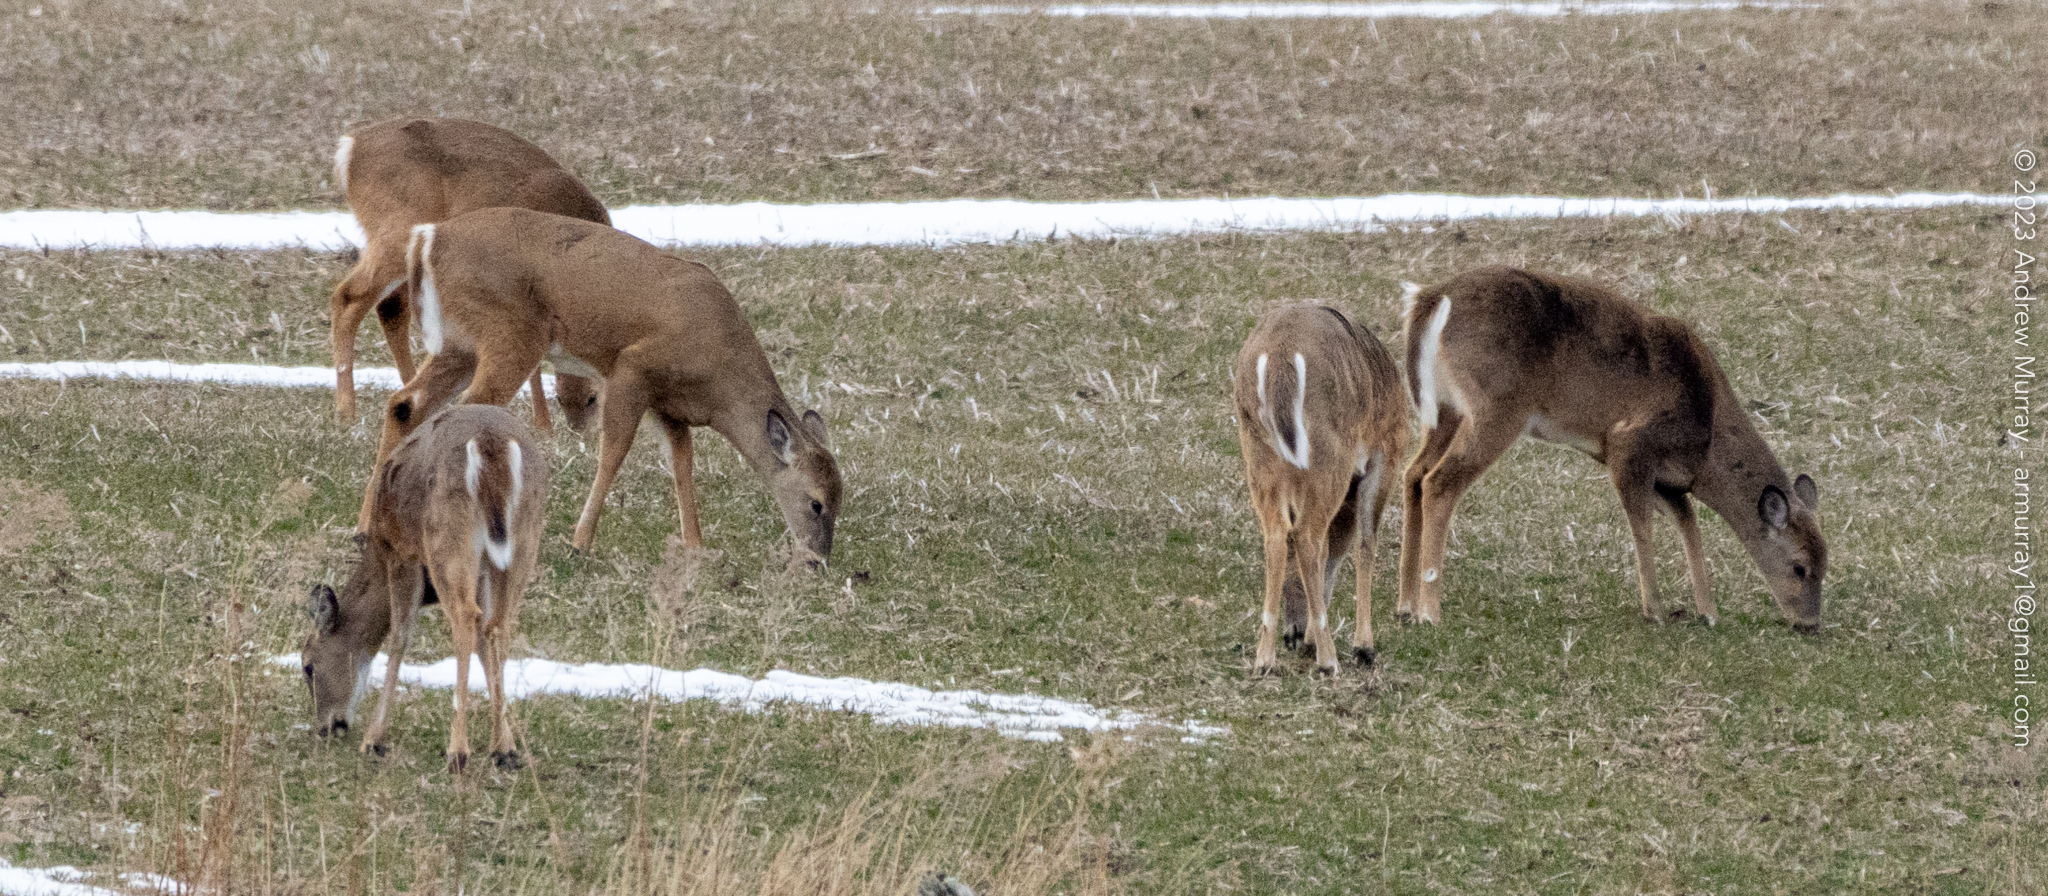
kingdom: Animalia
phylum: Chordata
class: Mammalia
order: Artiodactyla
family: Cervidae
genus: Odocoileus
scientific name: Odocoileus virginianus
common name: White-tailed deer
